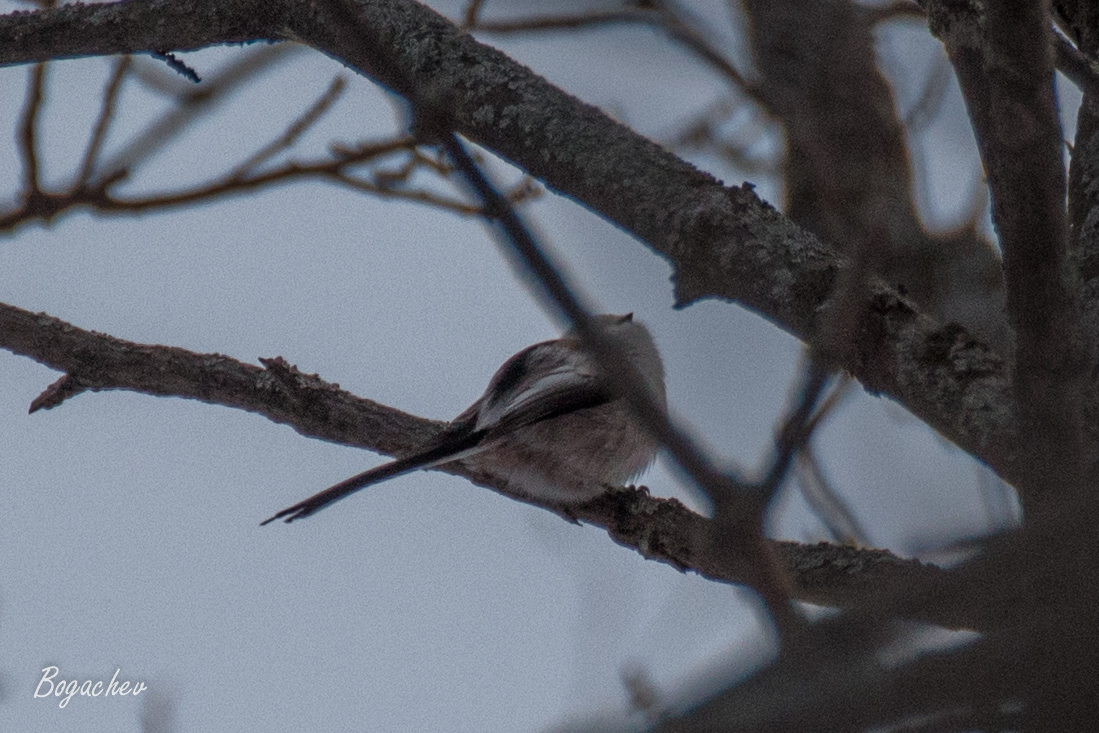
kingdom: Animalia
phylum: Chordata
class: Aves
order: Passeriformes
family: Aegithalidae
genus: Aegithalos
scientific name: Aegithalos caudatus
